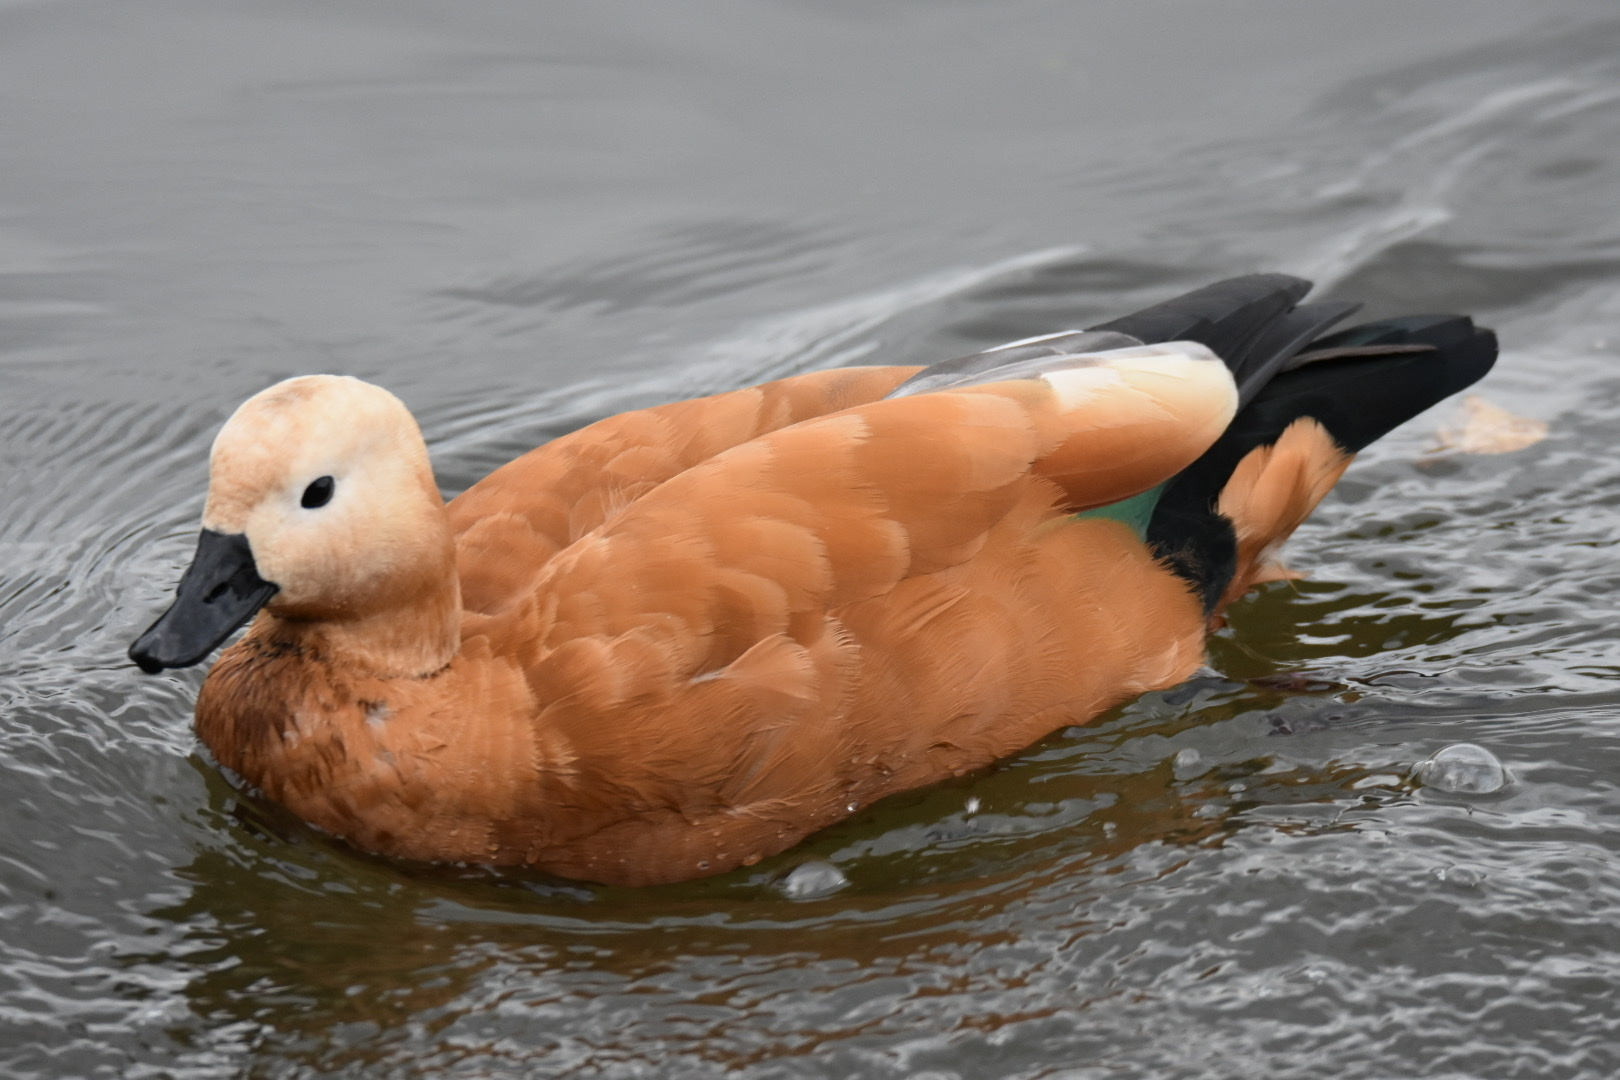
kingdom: Animalia
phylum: Chordata
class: Aves
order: Anseriformes
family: Anatidae
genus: Tadorna
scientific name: Tadorna ferruginea
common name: Ruddy shelduck
